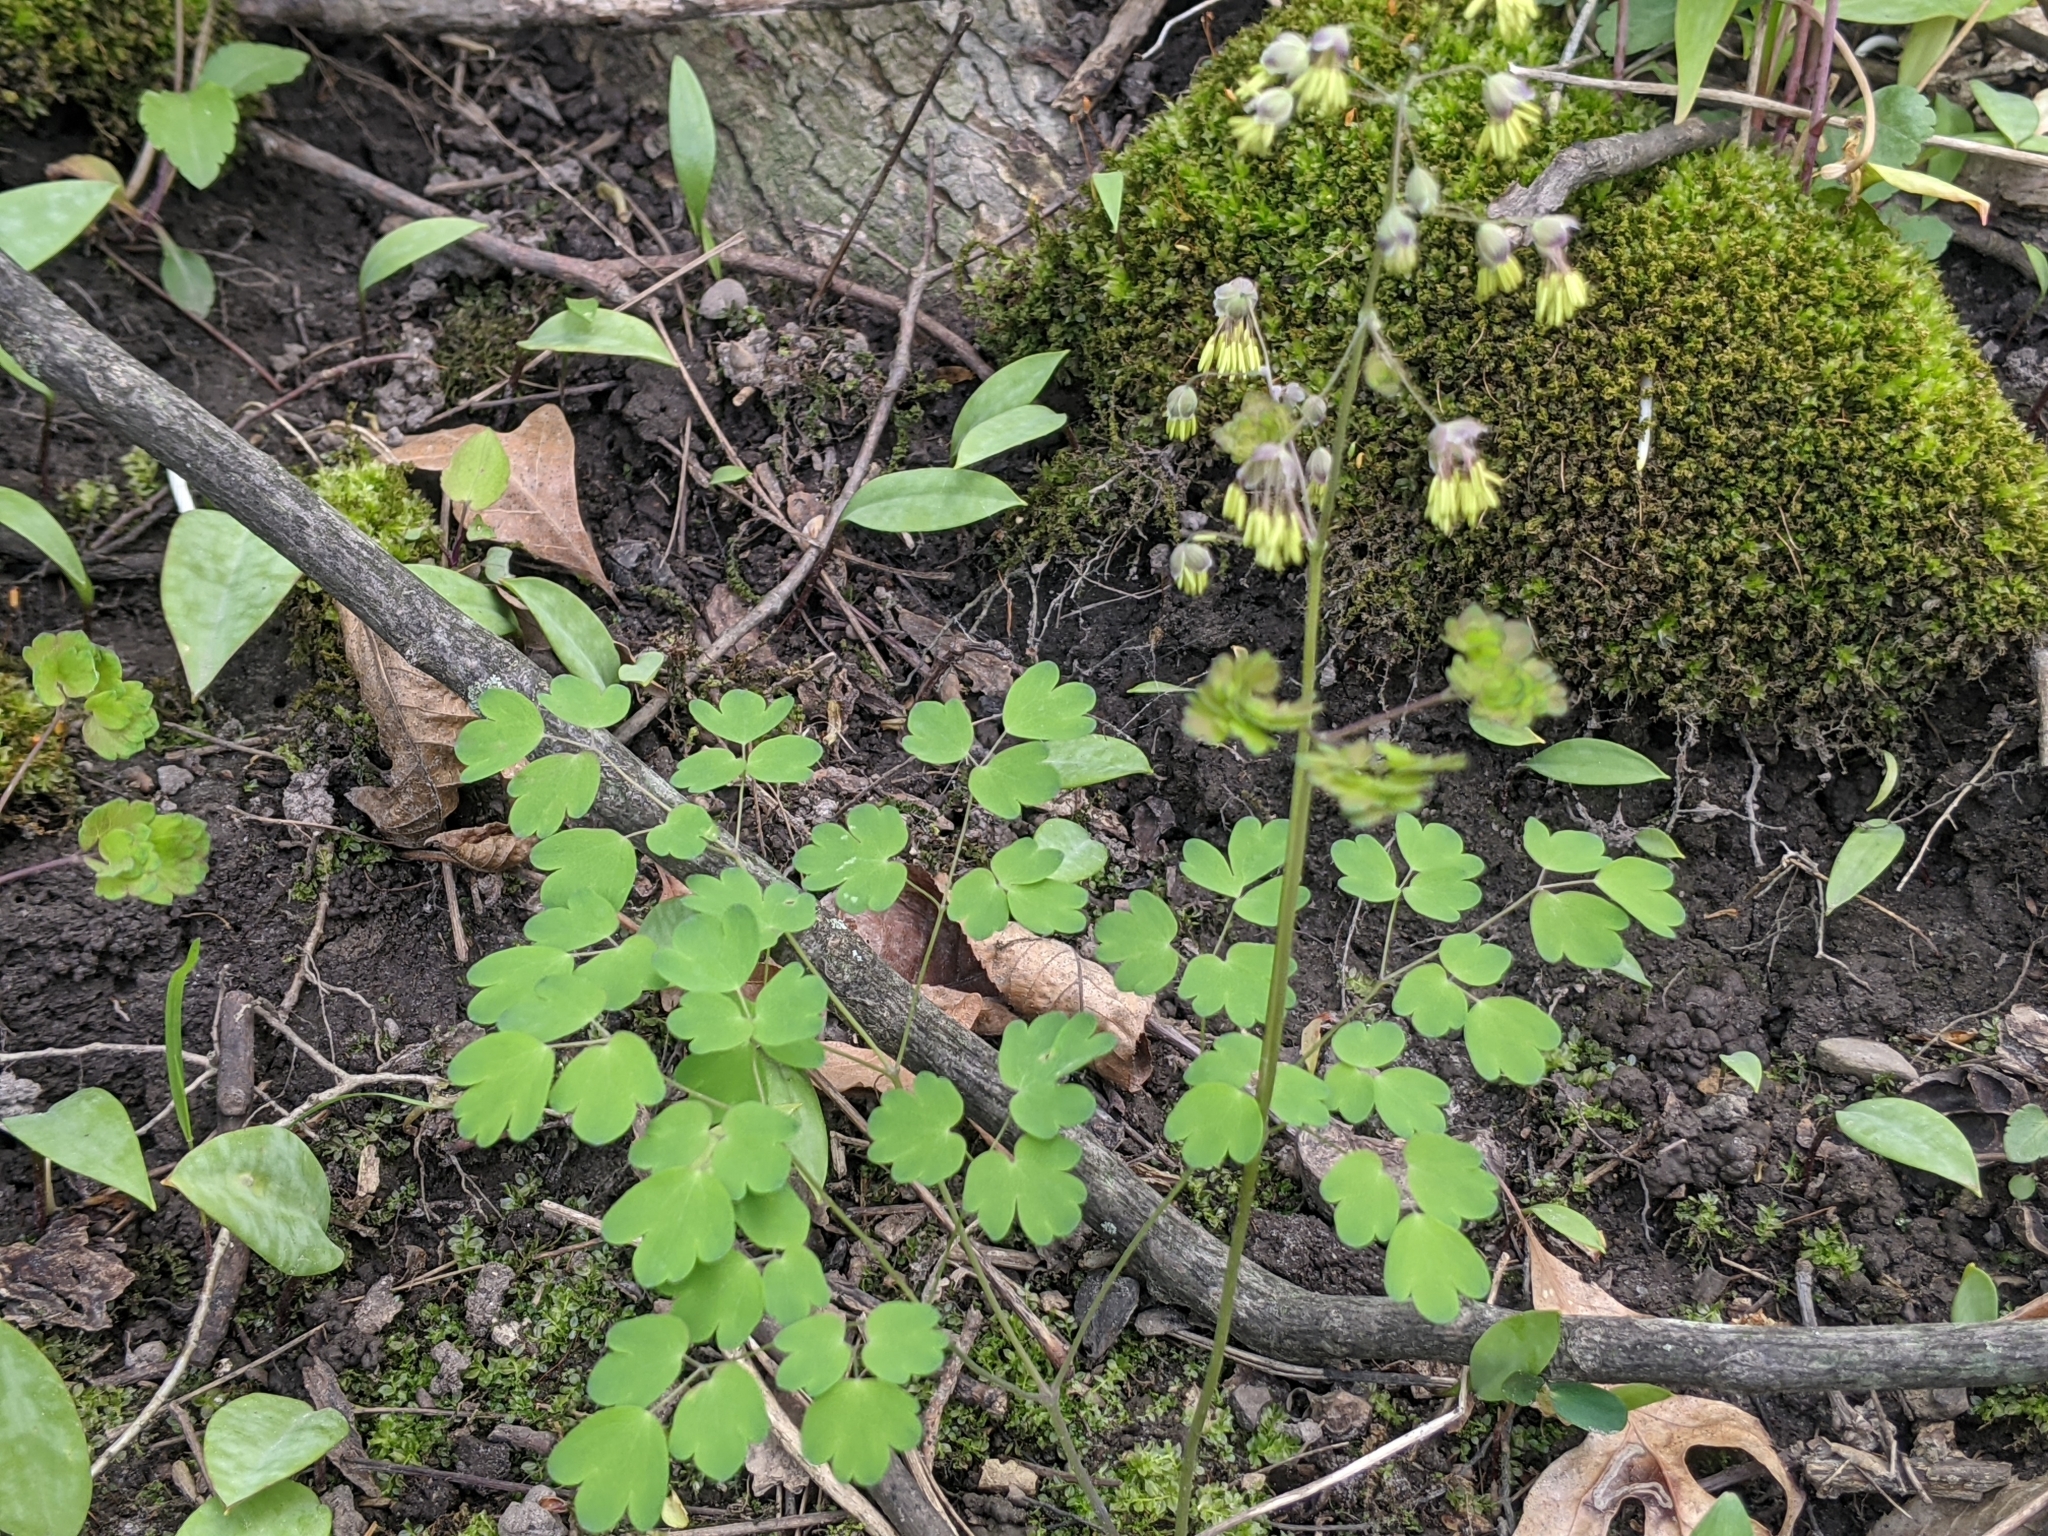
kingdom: Plantae
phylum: Tracheophyta
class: Magnoliopsida
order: Ranunculales
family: Ranunculaceae
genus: Thalictrum
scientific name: Thalictrum dioicum
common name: Early meadow-rue
